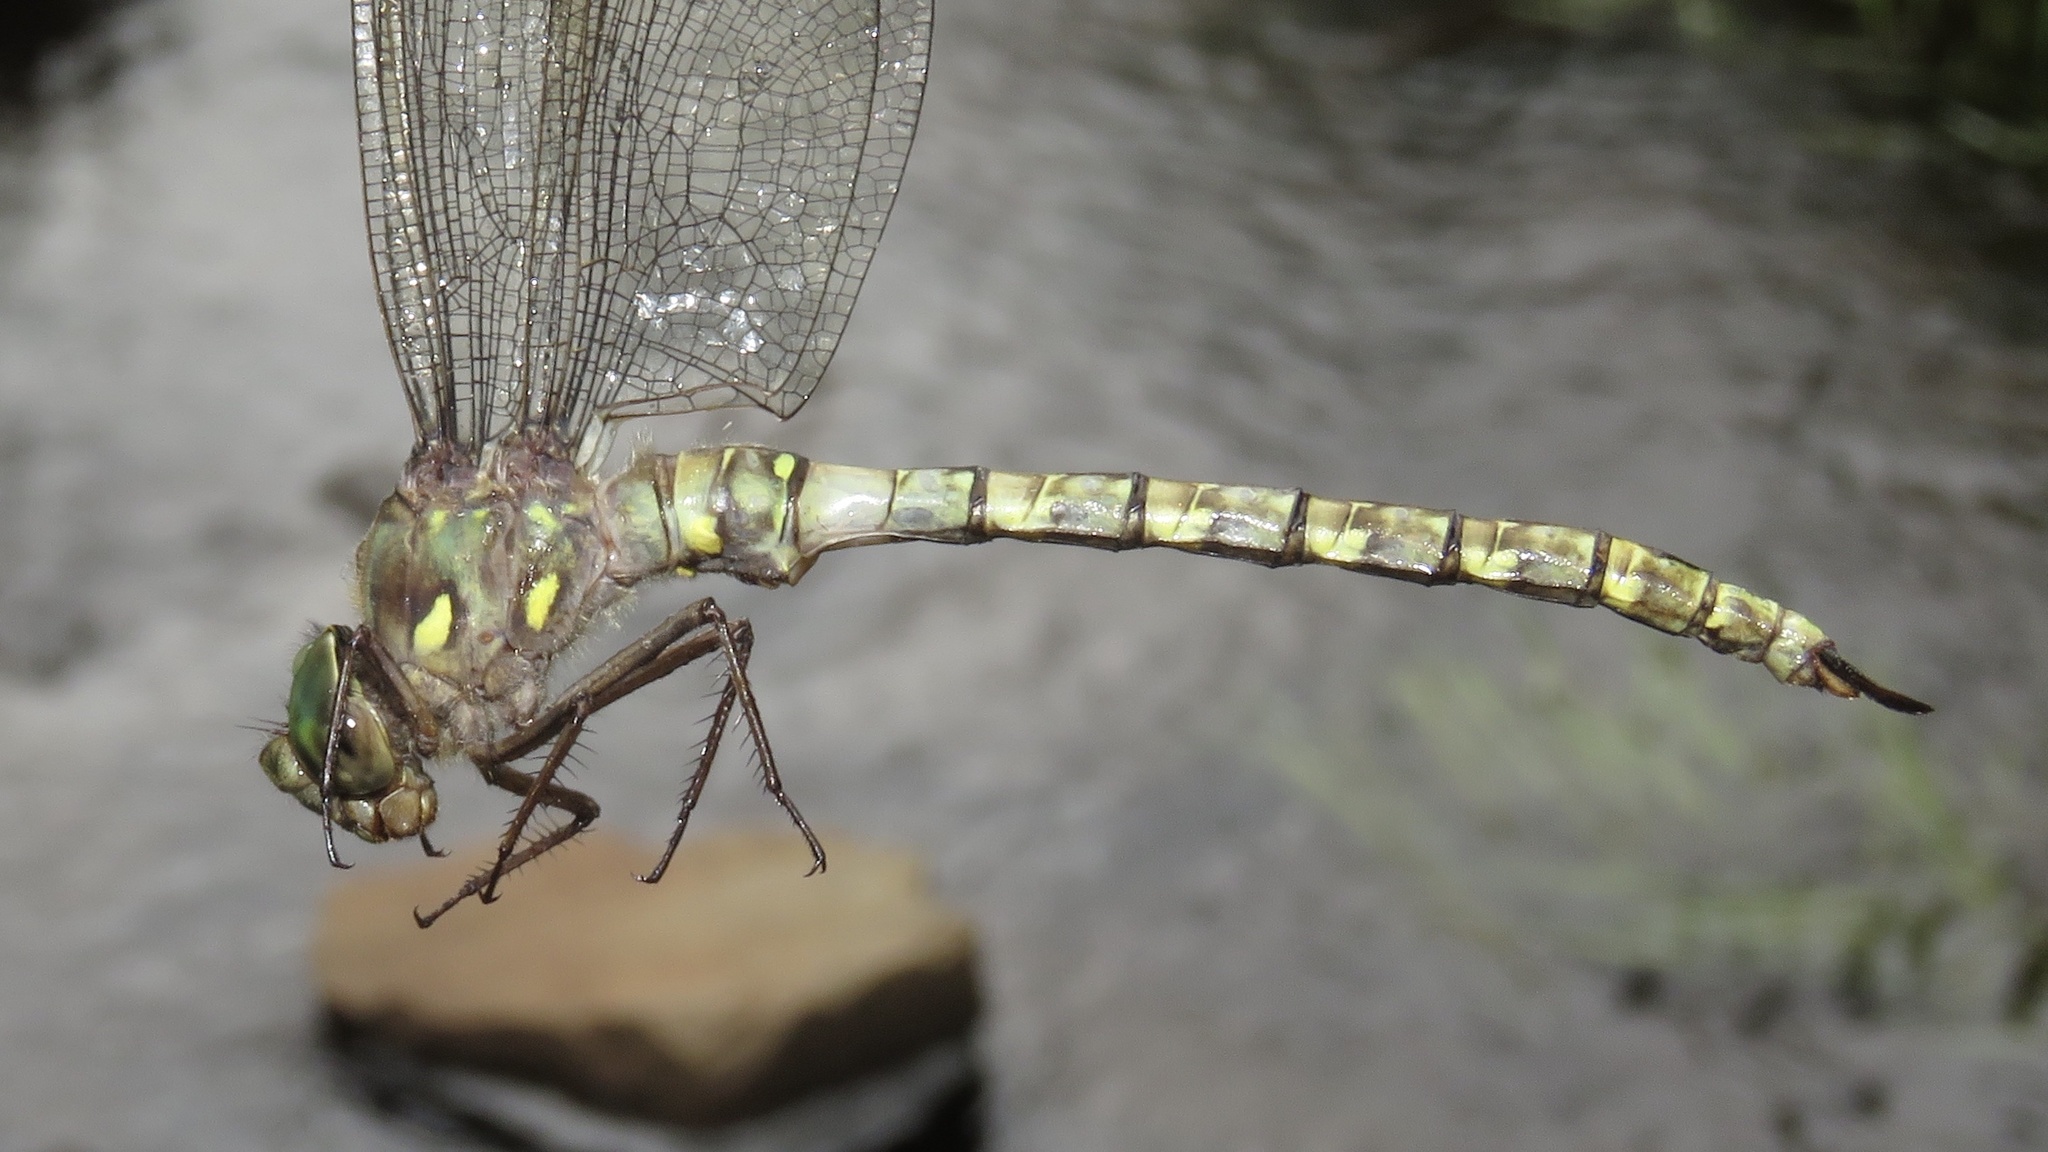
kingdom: Animalia
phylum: Arthropoda
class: Insecta
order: Odonata
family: Aeshnidae
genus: Boyeria
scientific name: Boyeria grafiana
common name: Ocellated darner
